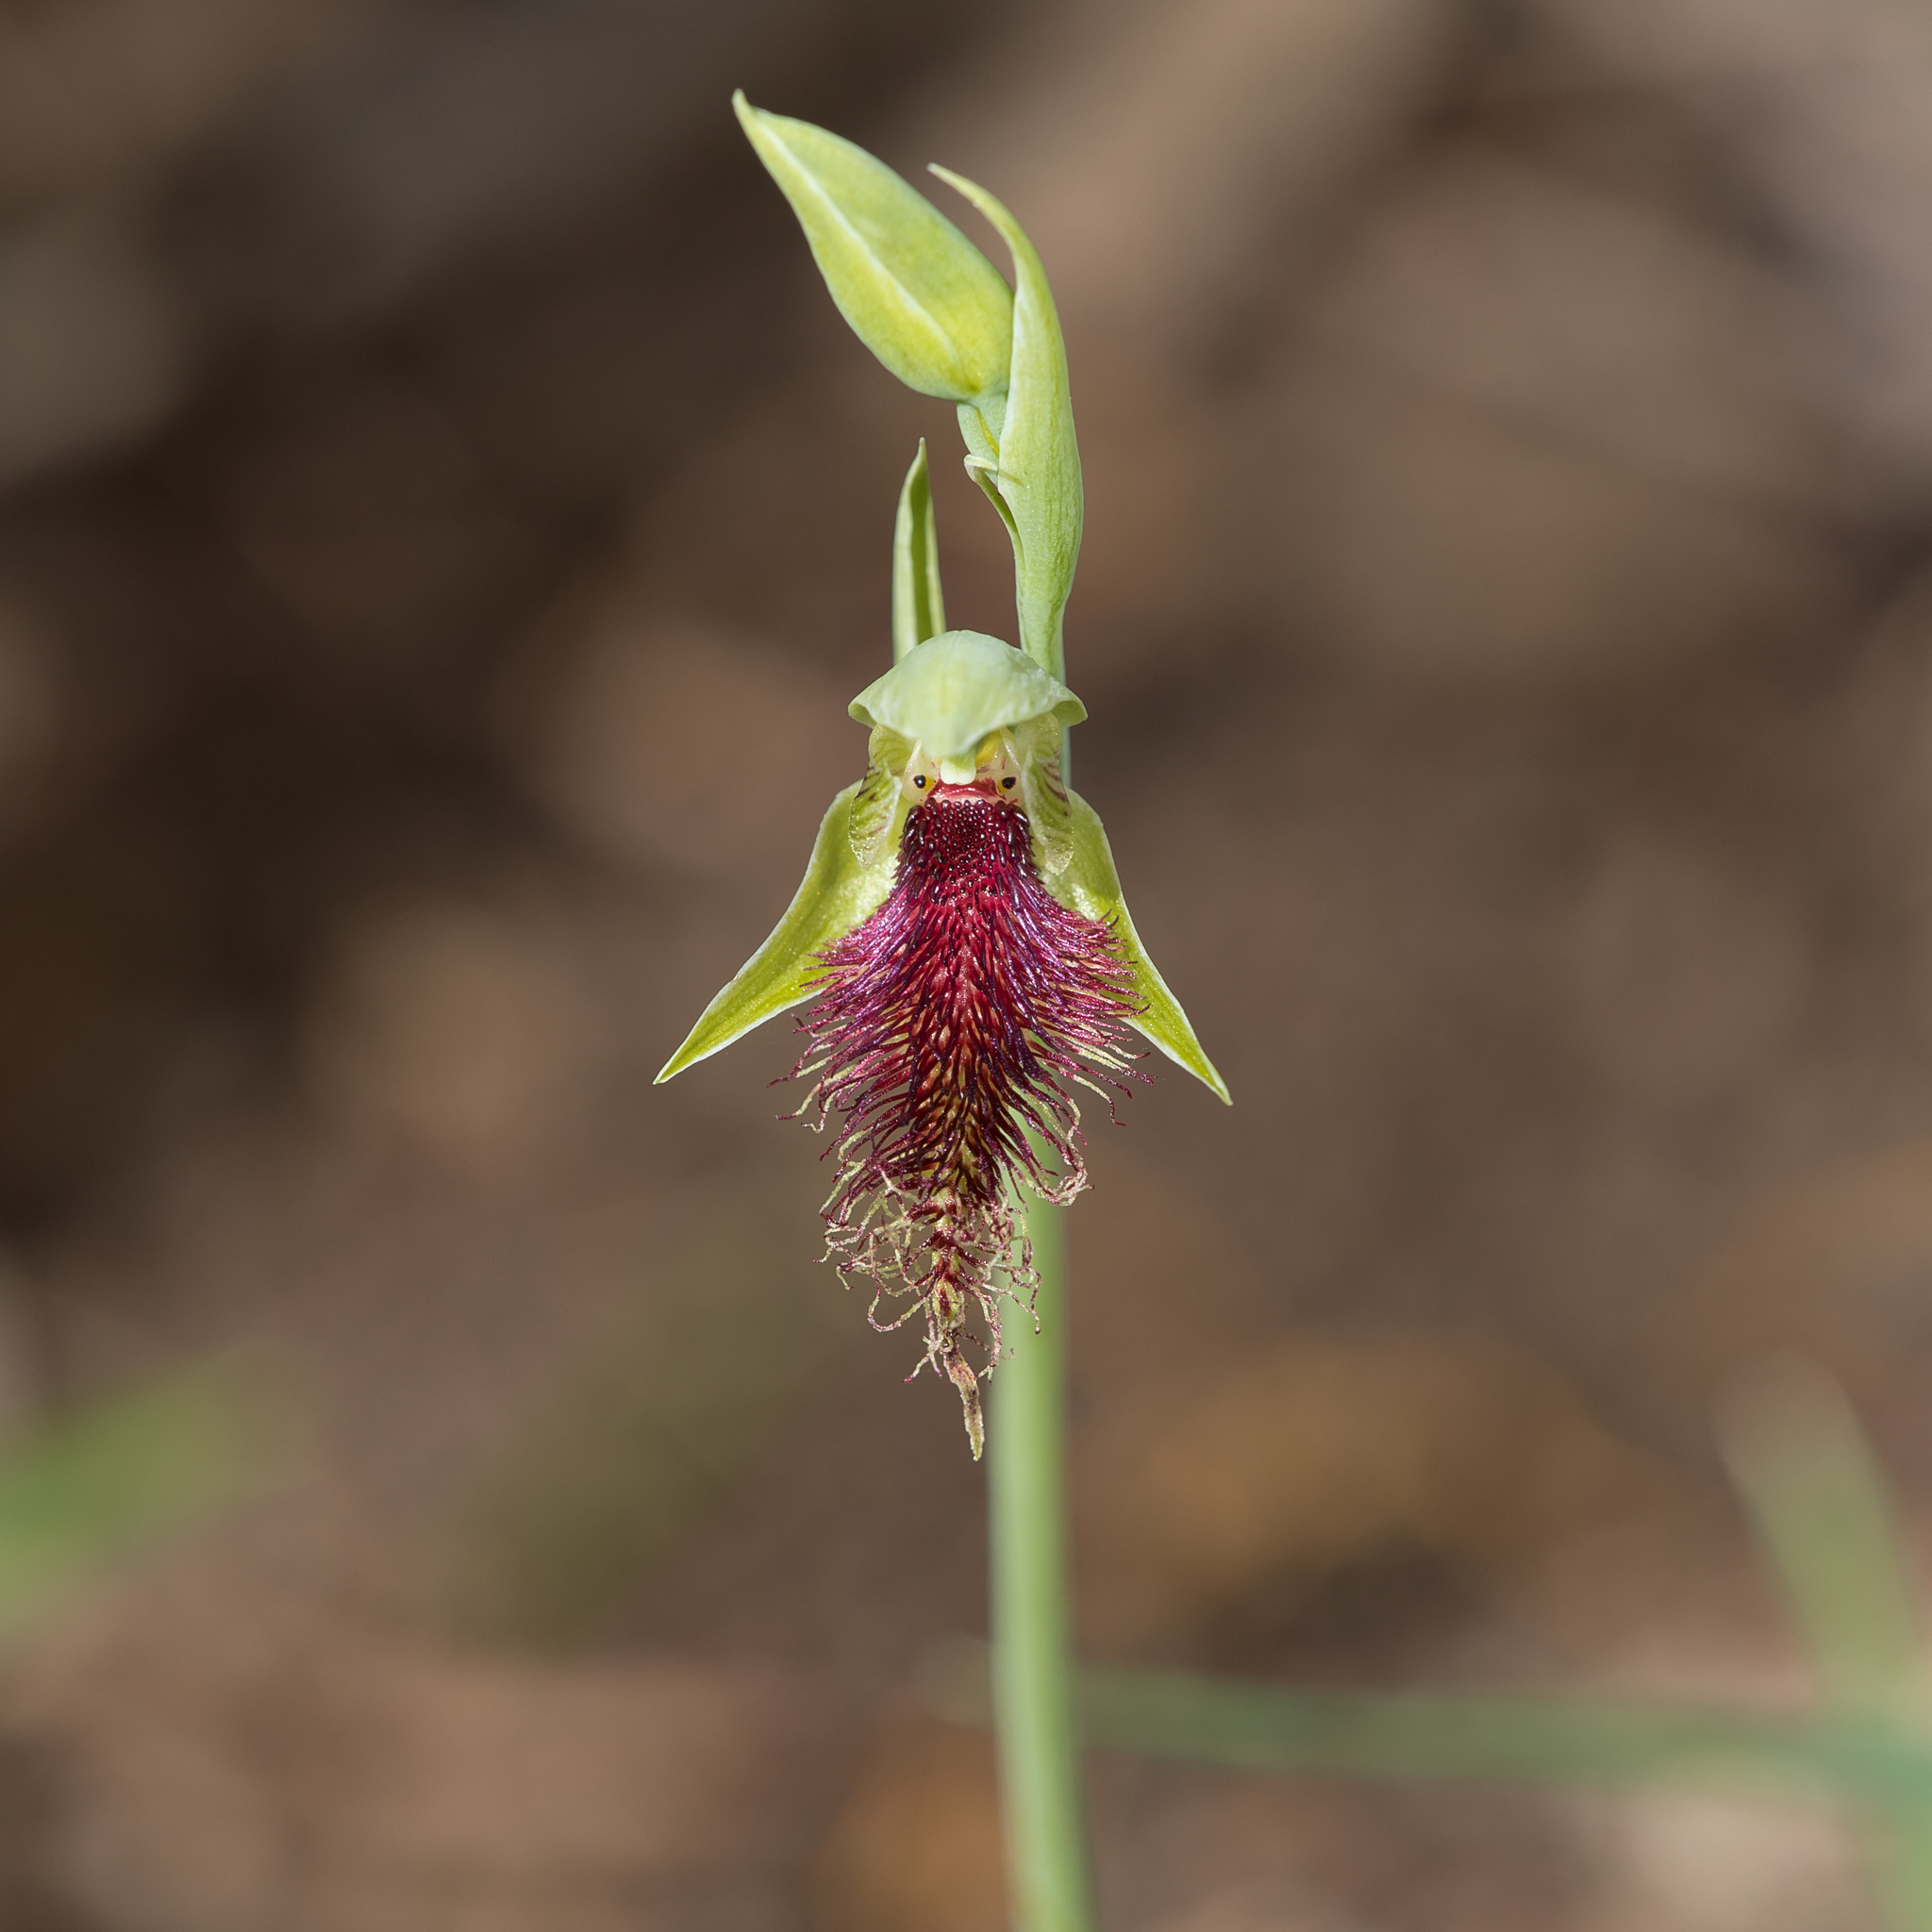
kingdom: Plantae
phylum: Tracheophyta
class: Liliopsida
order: Asparagales
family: Orchidaceae
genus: Calochilus
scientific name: Calochilus robertsonii
